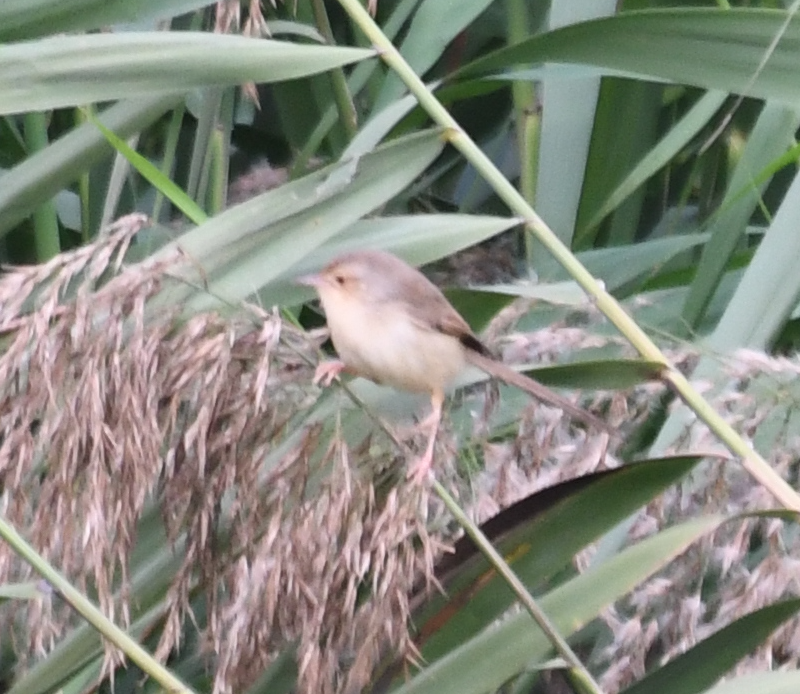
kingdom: Animalia
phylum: Chordata
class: Aves
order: Passeriformes
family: Cisticolidae
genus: Prinia
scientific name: Prinia inornata
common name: Plain prinia
